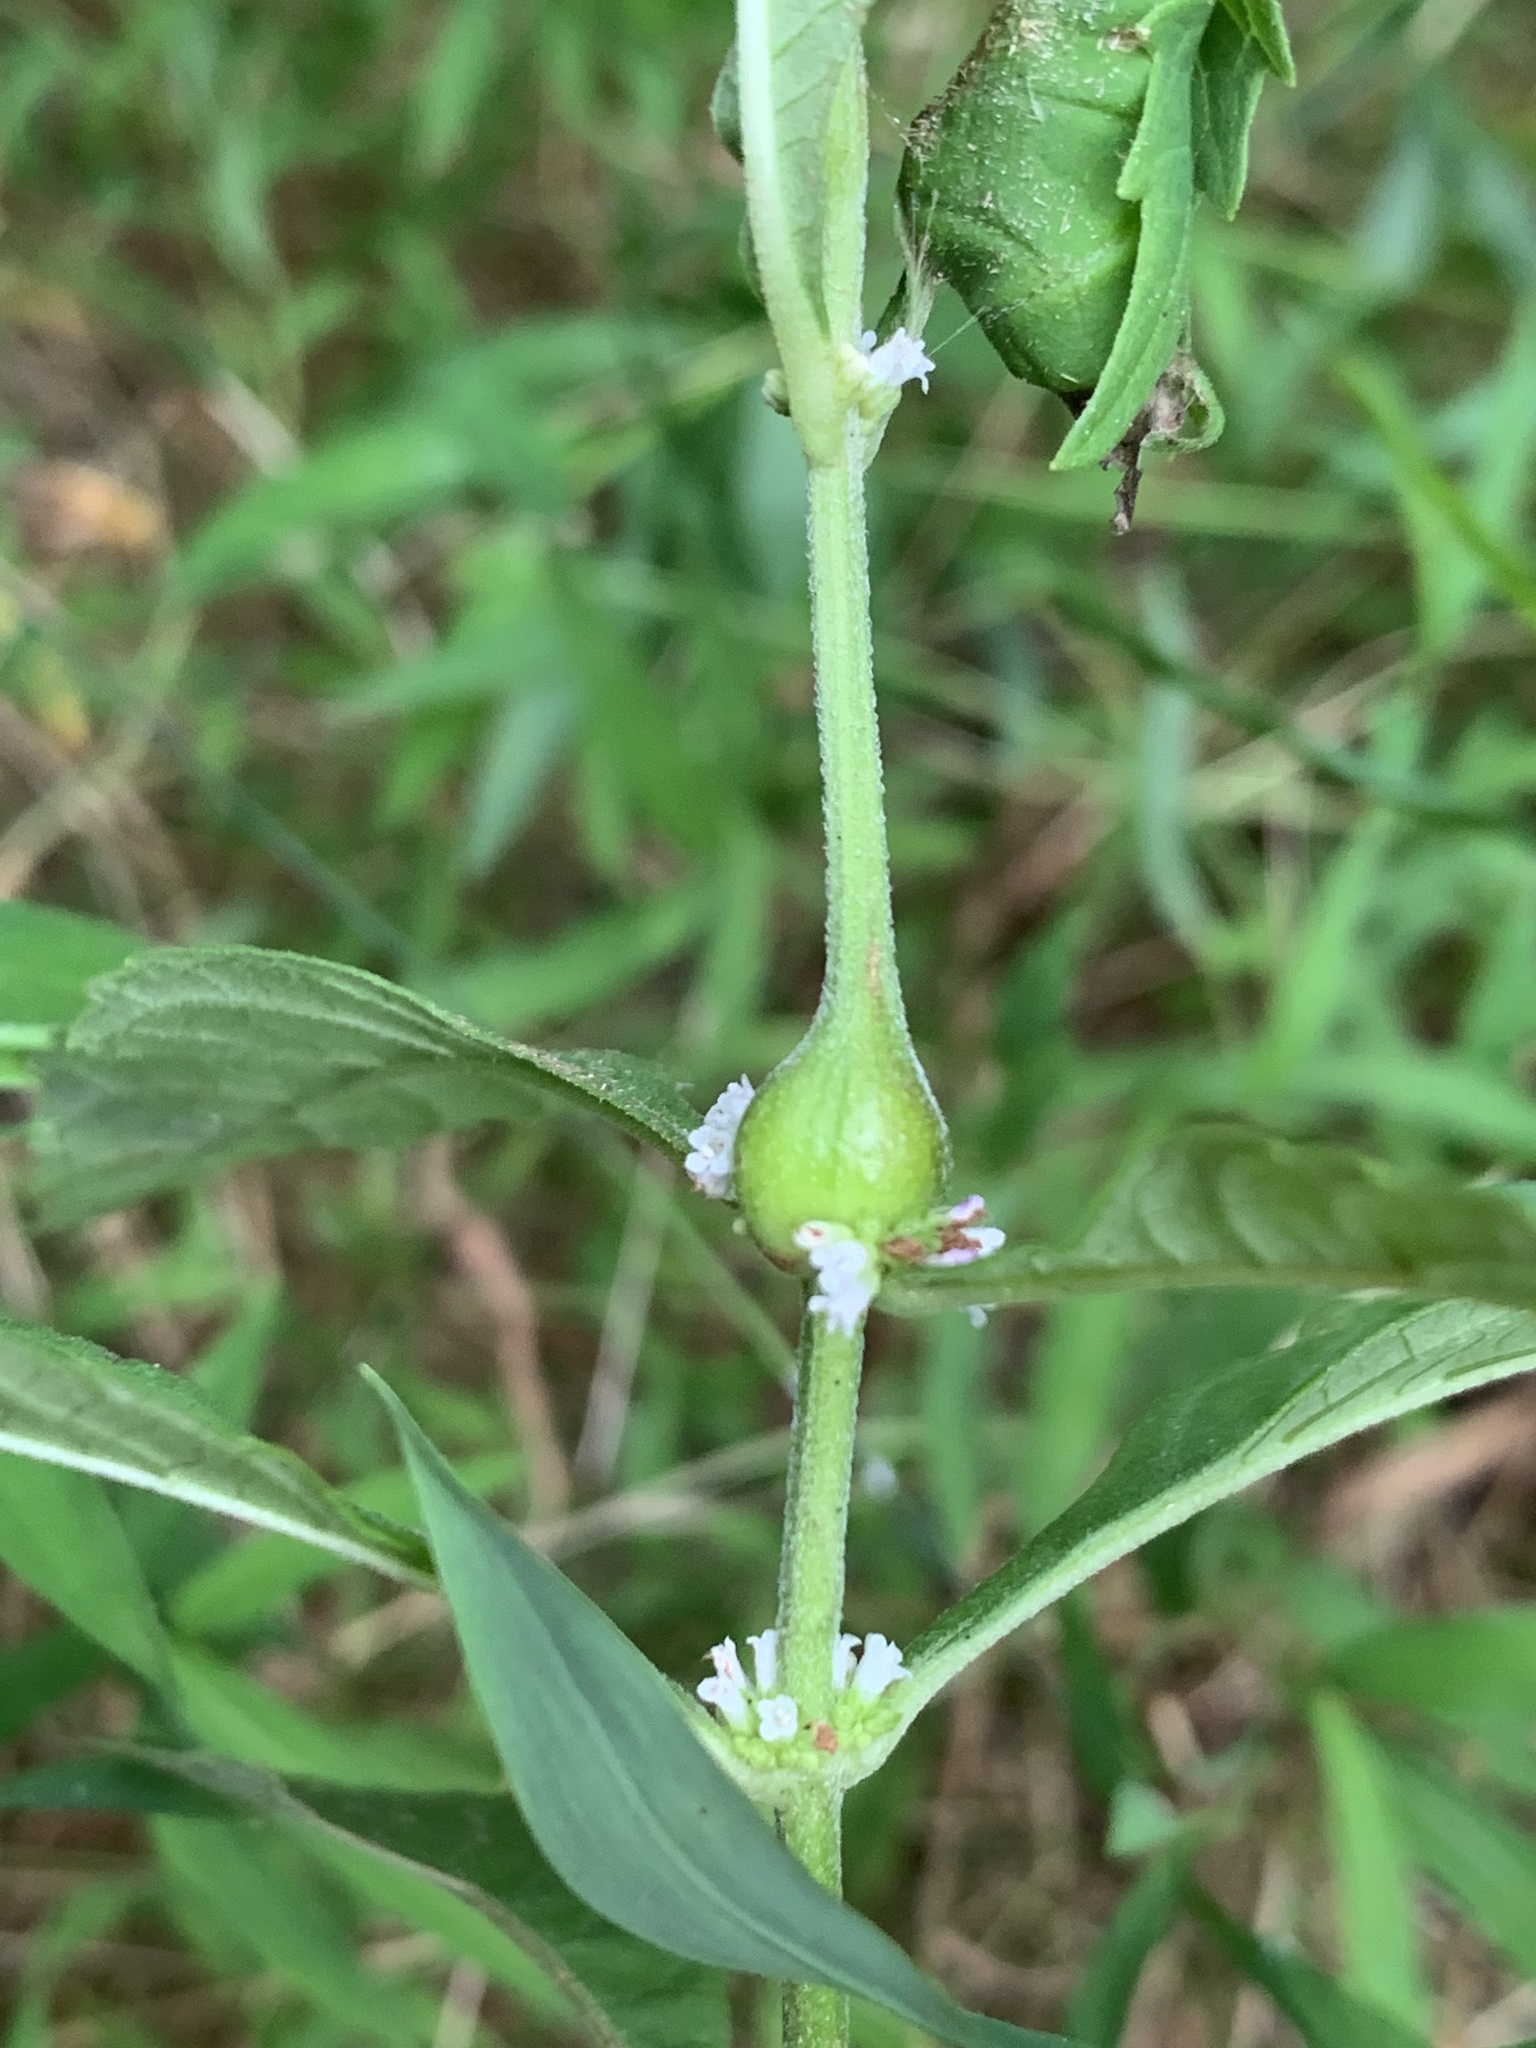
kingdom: Animalia
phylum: Arthropoda
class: Insecta
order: Diptera
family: Cecidomyiidae
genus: Neolasioptera
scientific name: Neolasioptera lycopi
